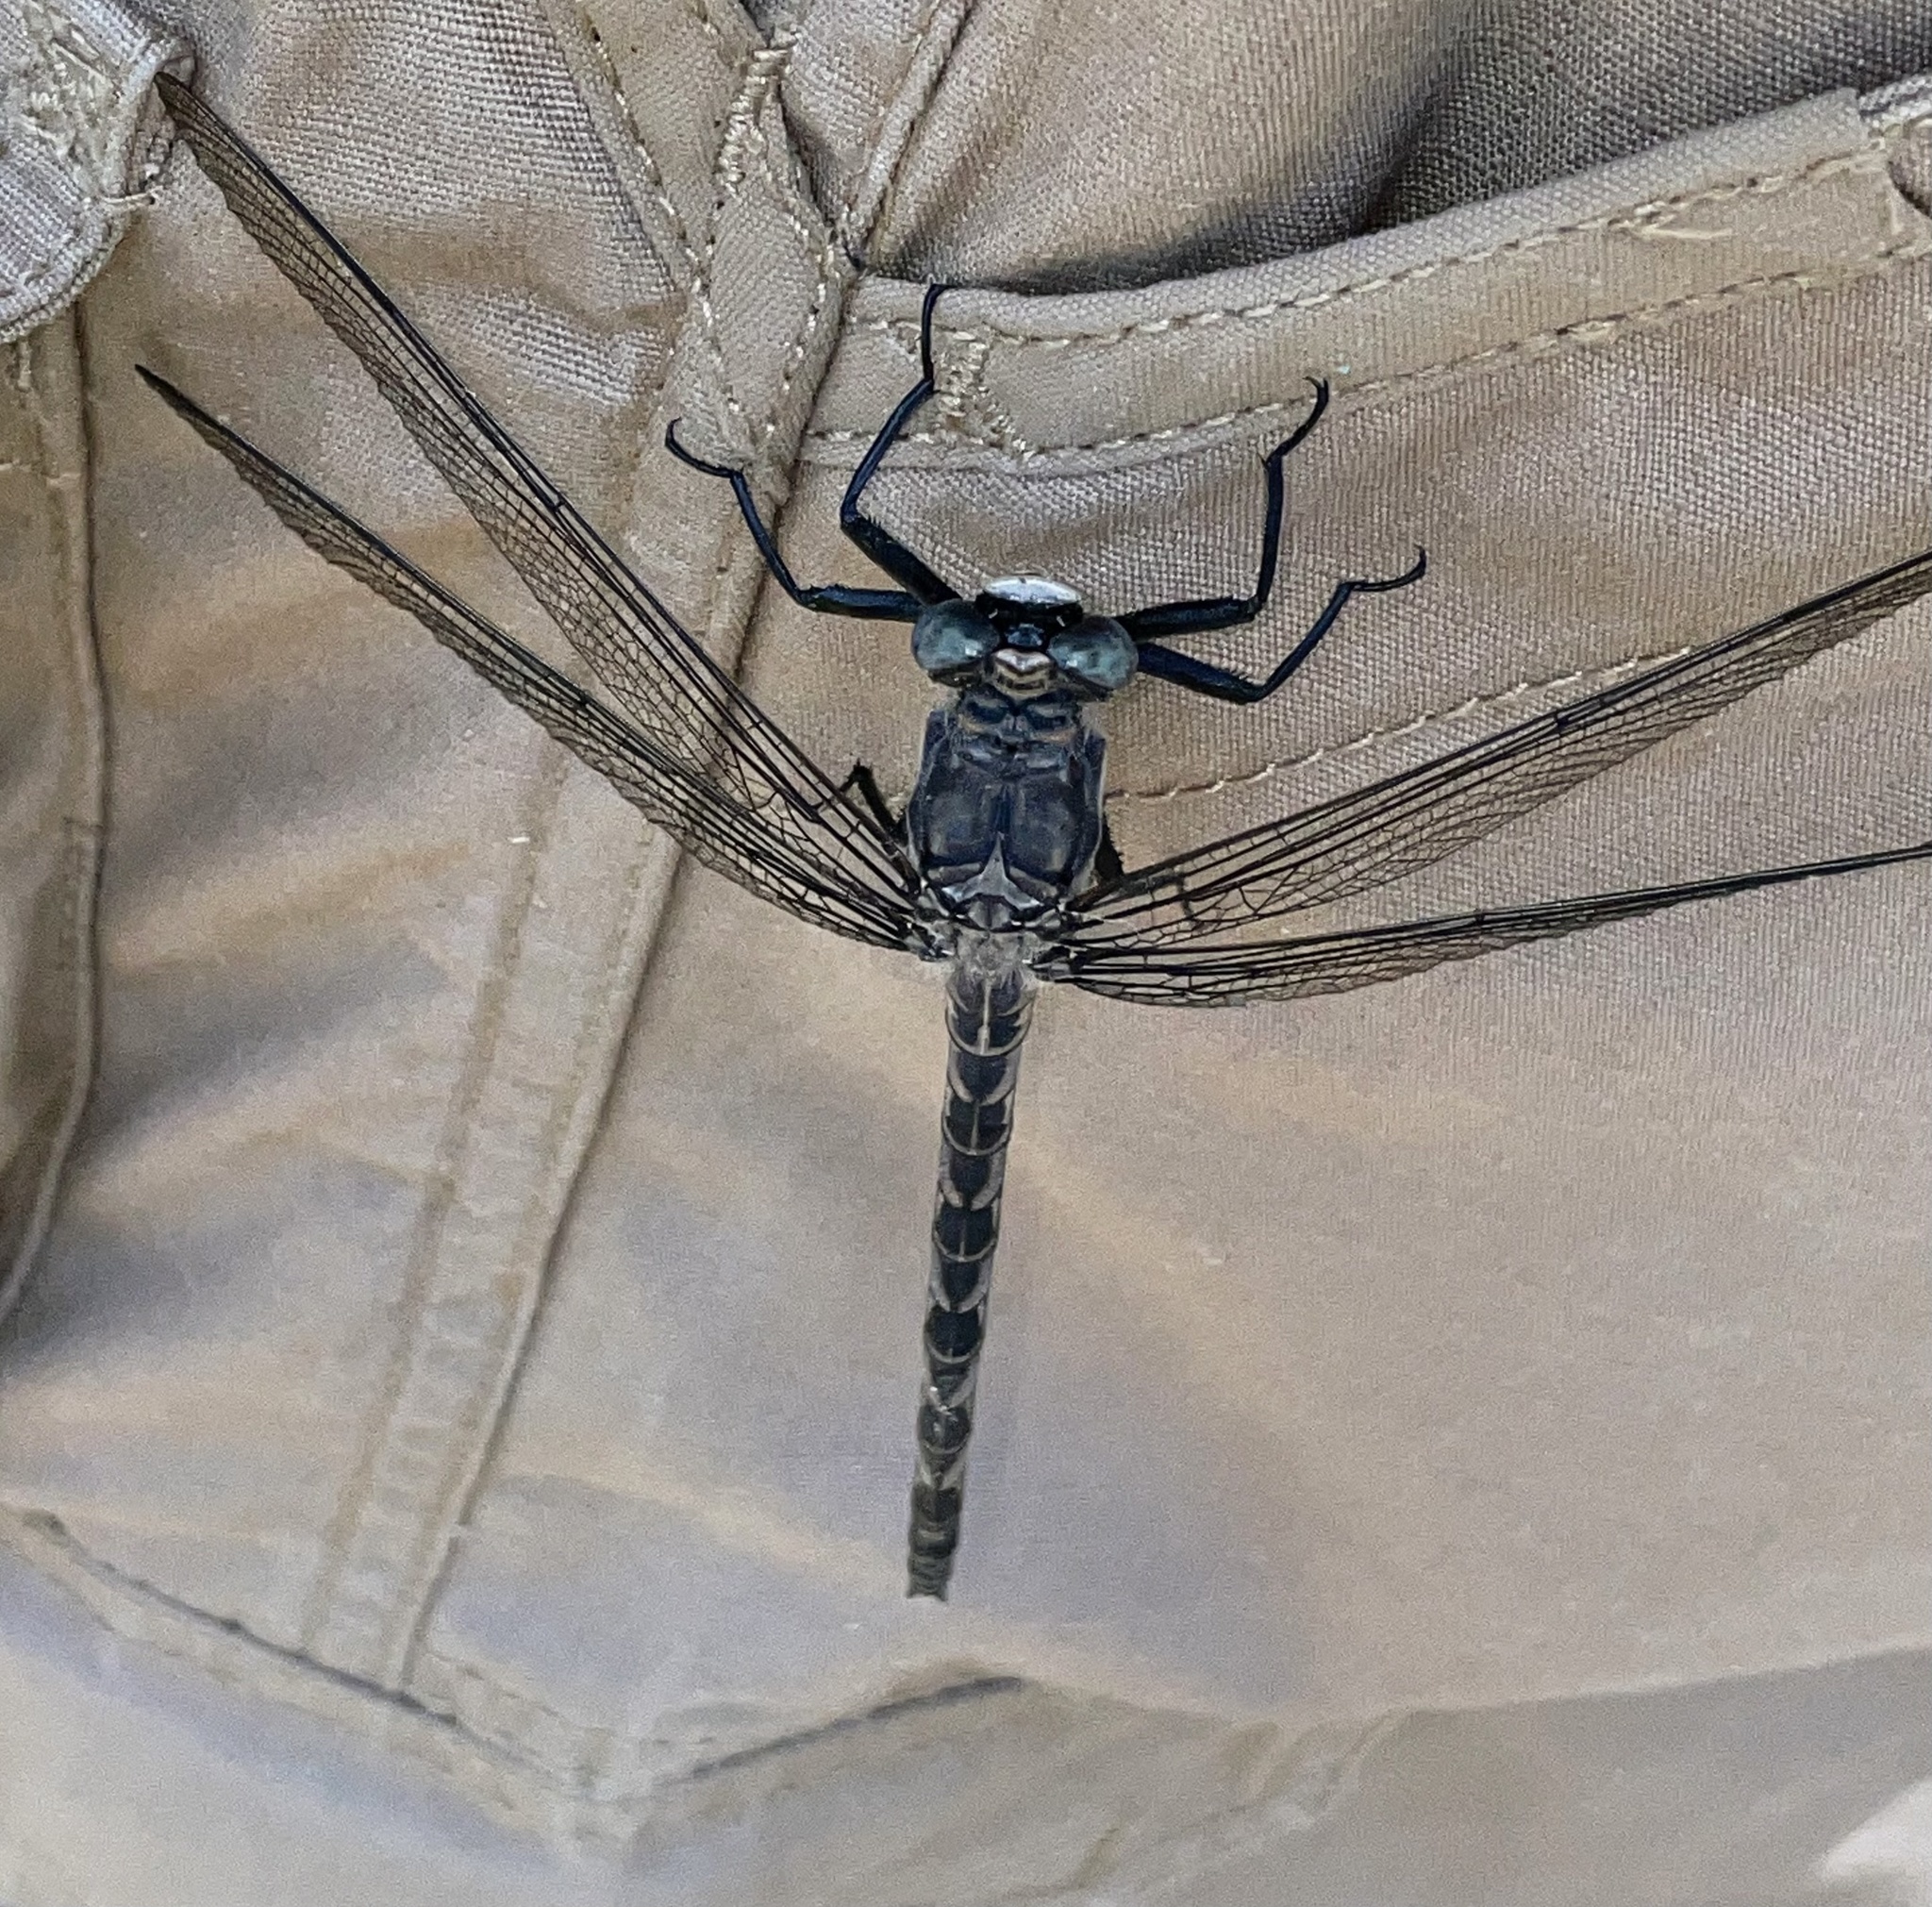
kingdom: Animalia
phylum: Arthropoda
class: Insecta
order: Odonata
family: Petaluridae
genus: Tachopteryx
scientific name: Tachopteryx thoreyi
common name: Gray petaltail
